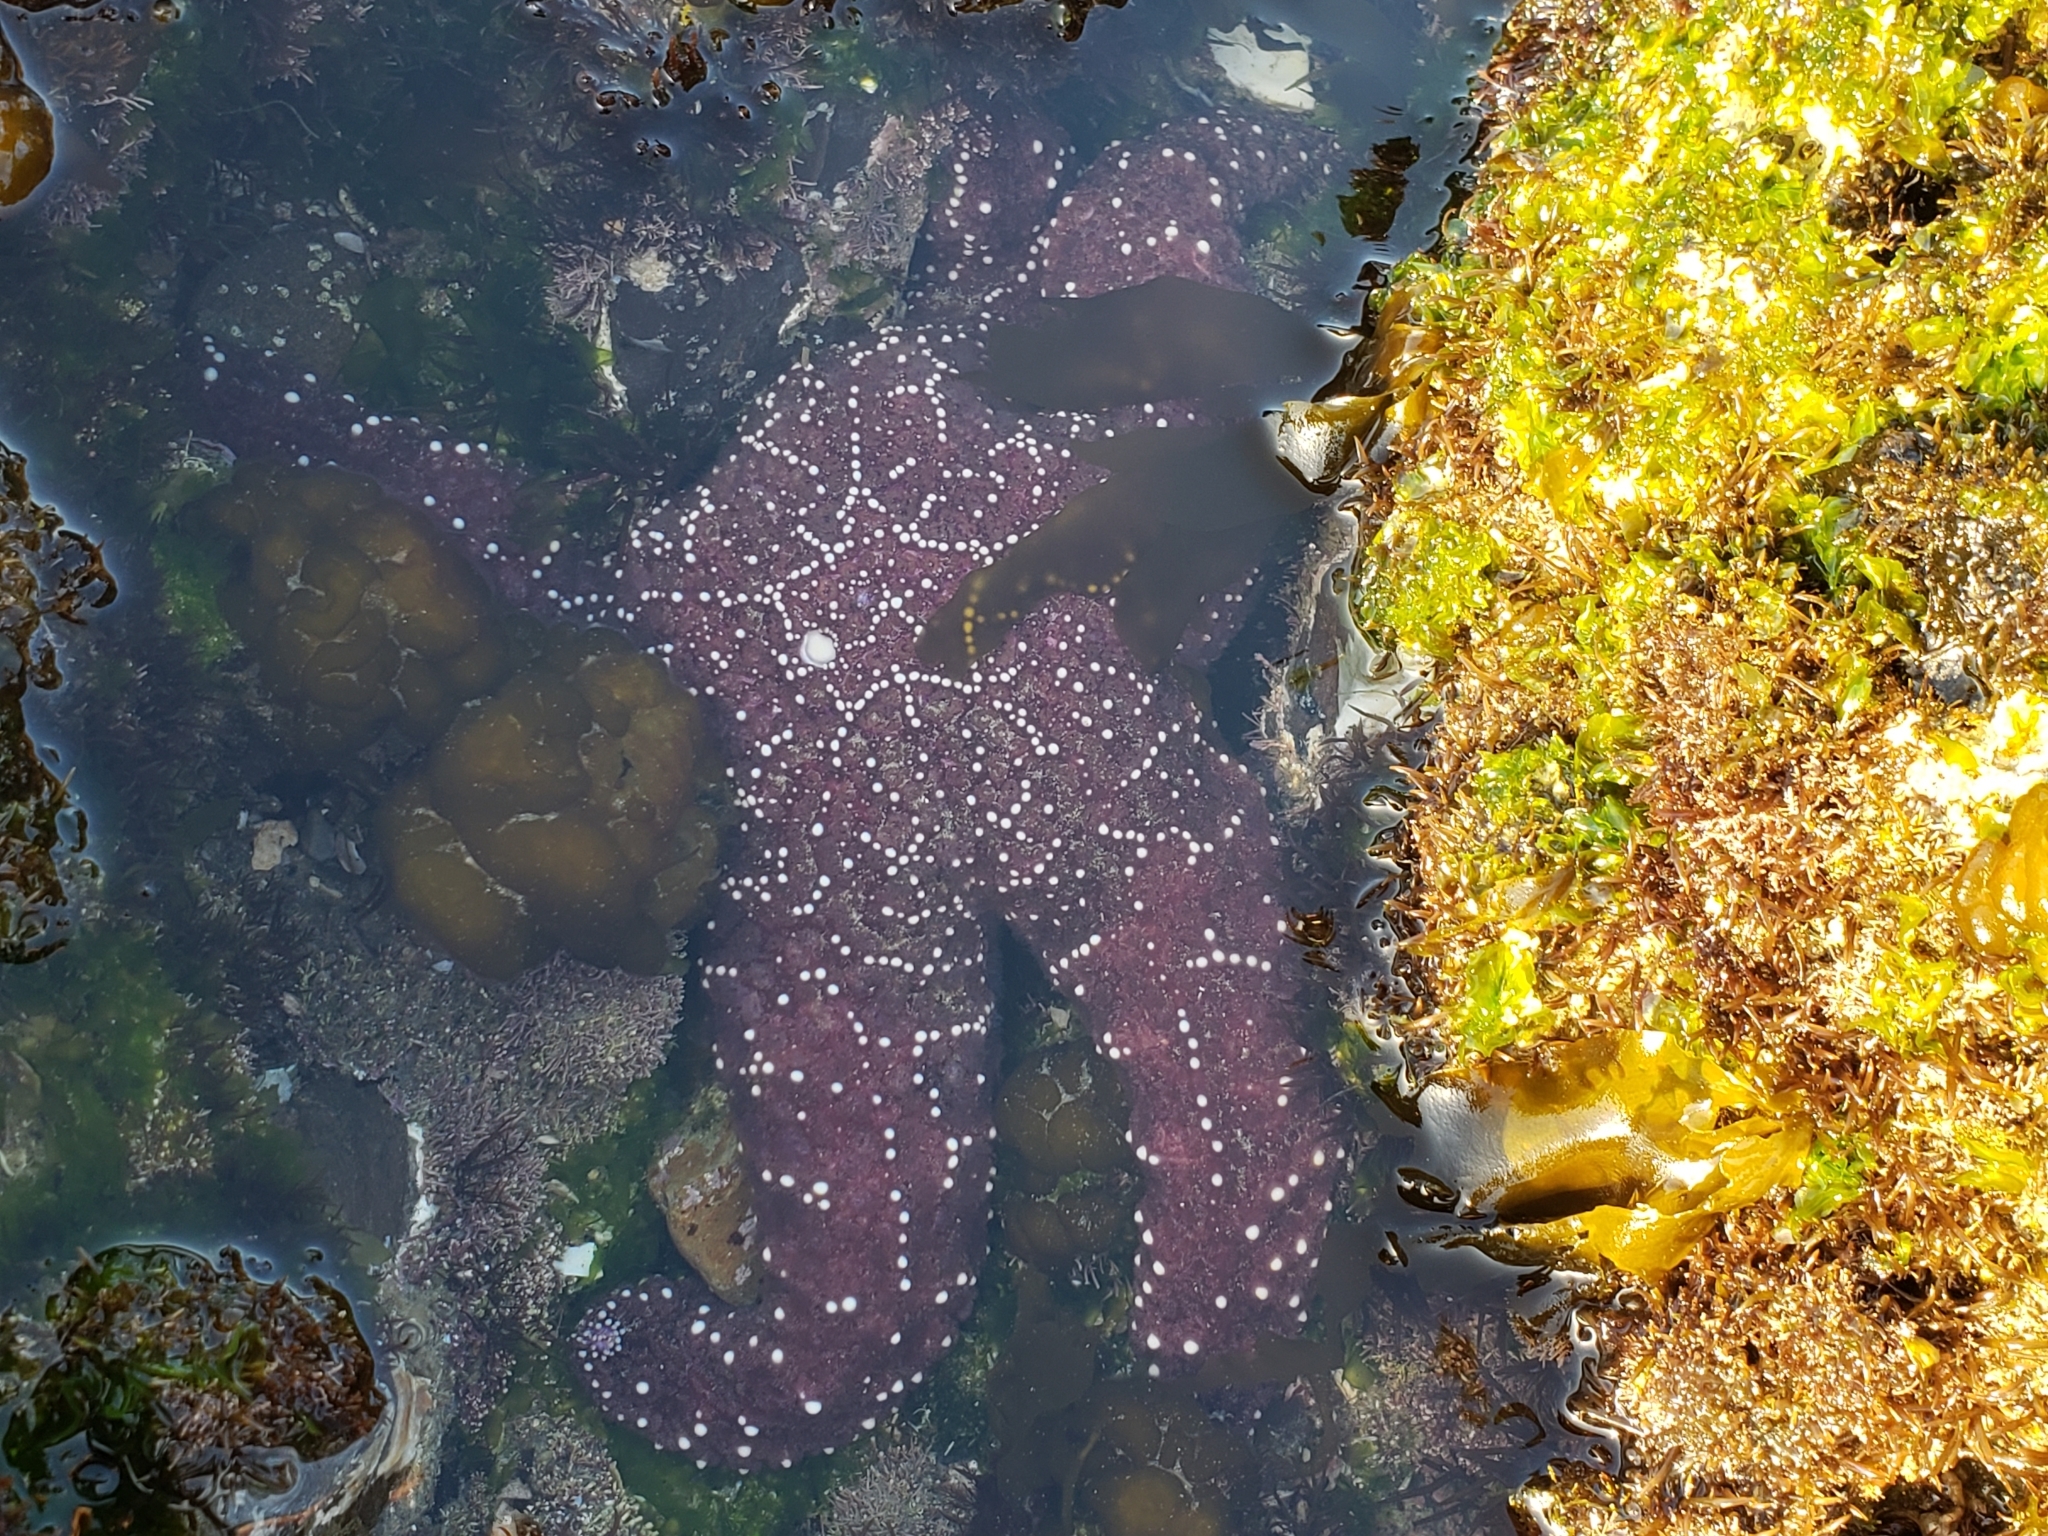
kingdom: Animalia
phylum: Echinodermata
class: Asteroidea
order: Forcipulatida
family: Asteriidae
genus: Pisaster
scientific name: Pisaster ochraceus
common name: Ochre stars
